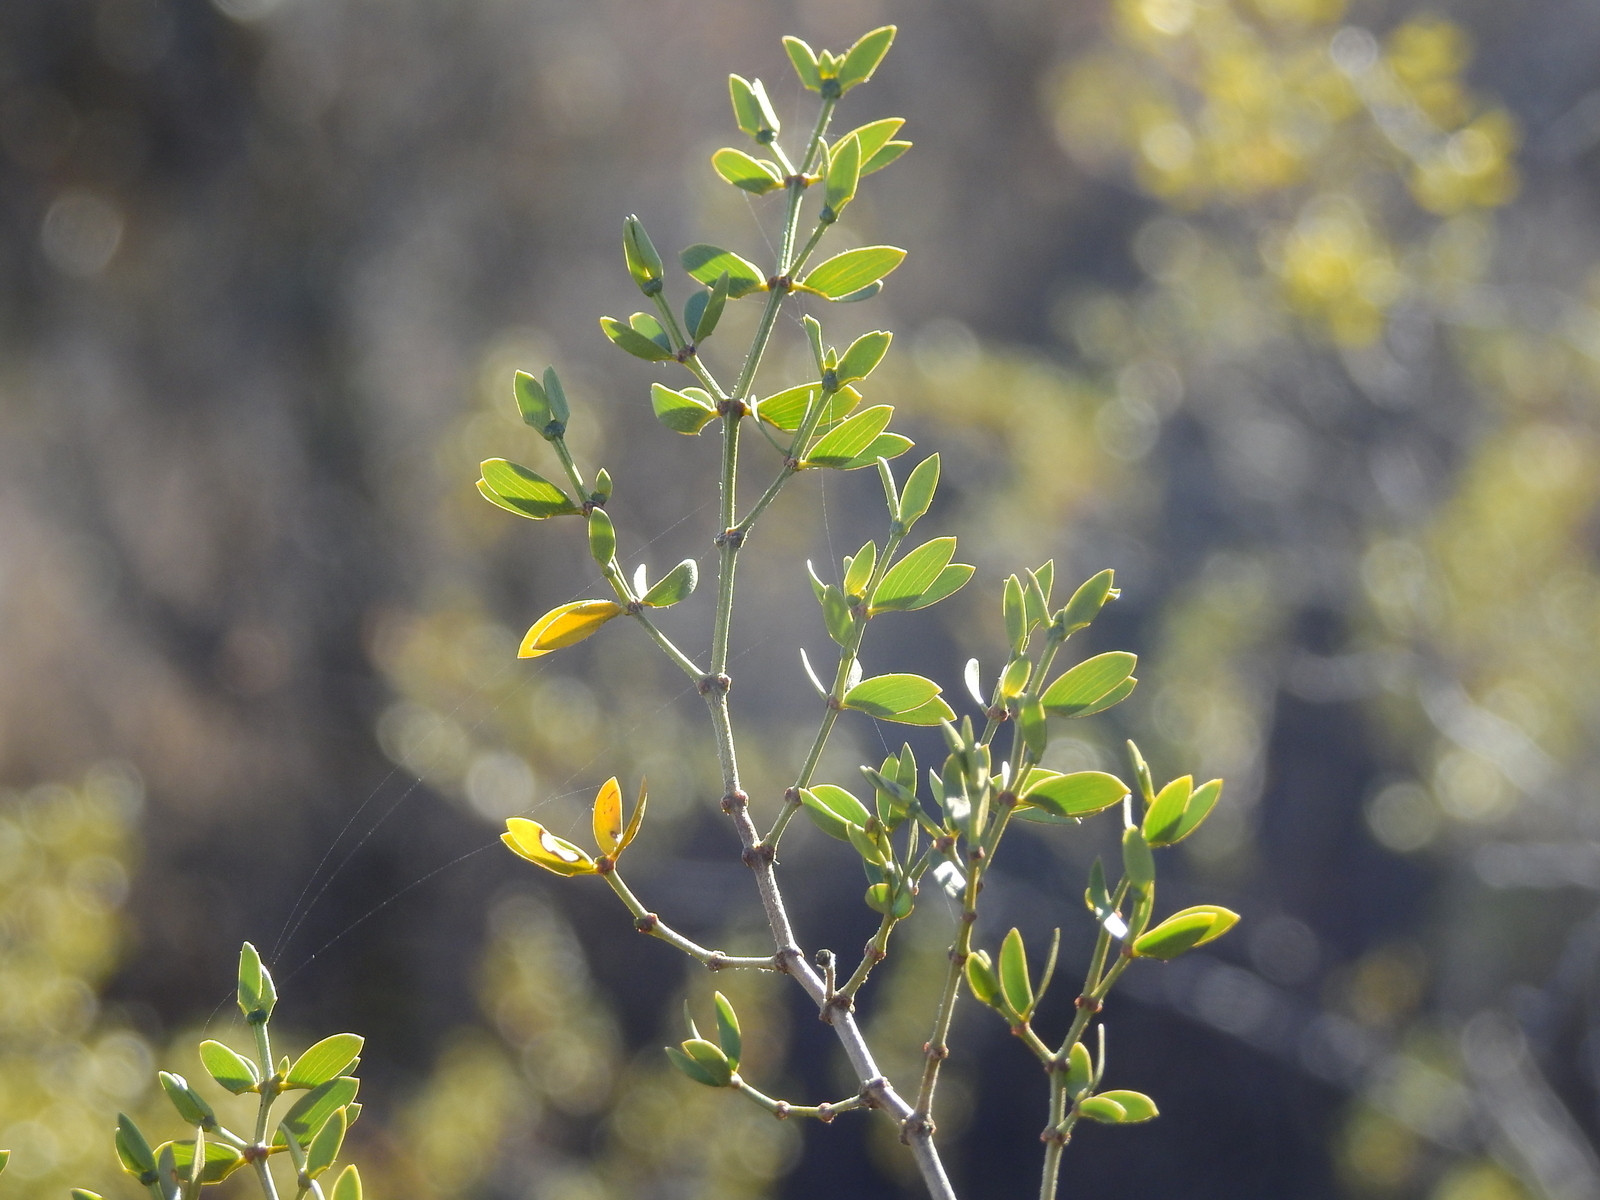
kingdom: Plantae
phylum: Tracheophyta
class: Magnoliopsida
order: Zygophyllales
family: Zygophyllaceae
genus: Larrea
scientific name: Larrea divaricata
